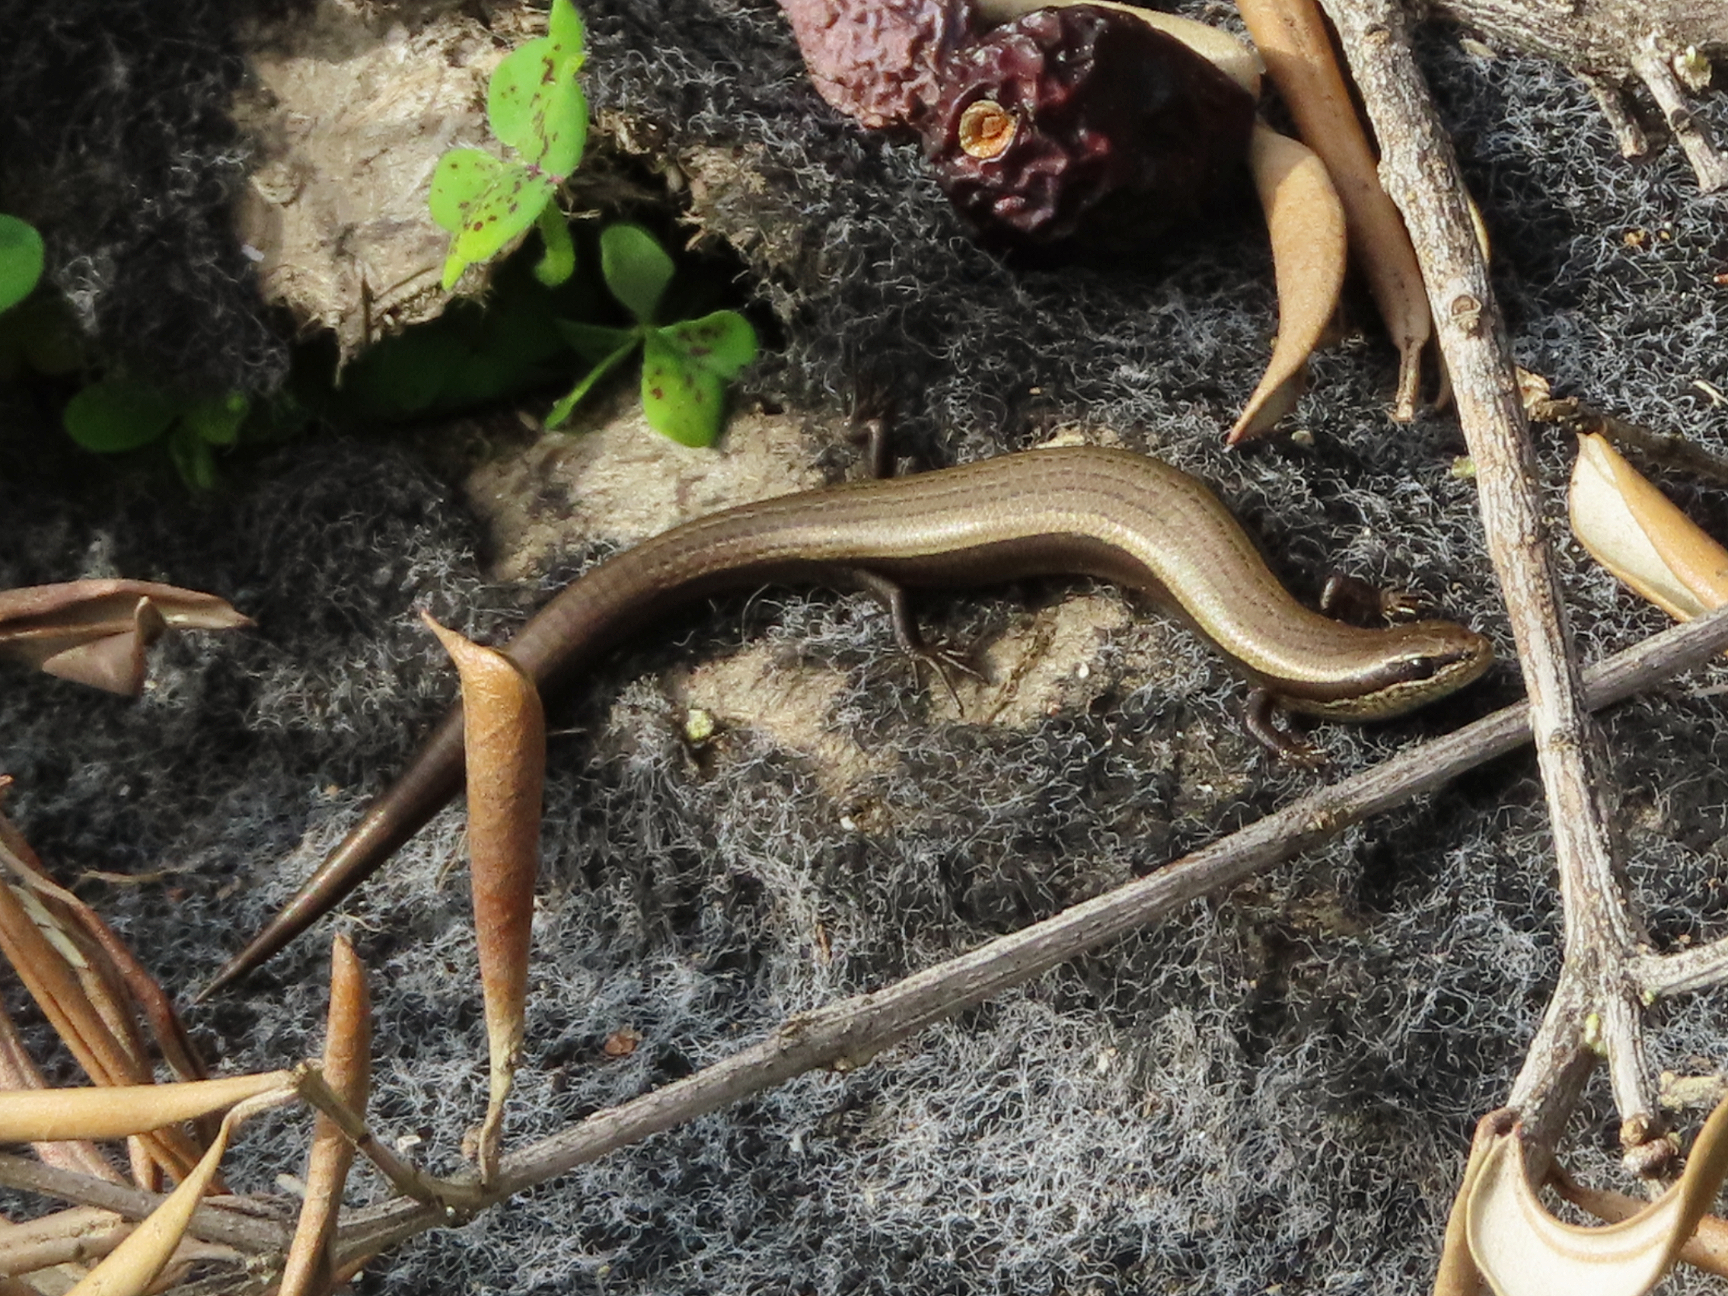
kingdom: Animalia
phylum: Chordata
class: Squamata
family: Scincidae
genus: Ablepharus
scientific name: Ablepharus kitaibelii
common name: Juniper skink
